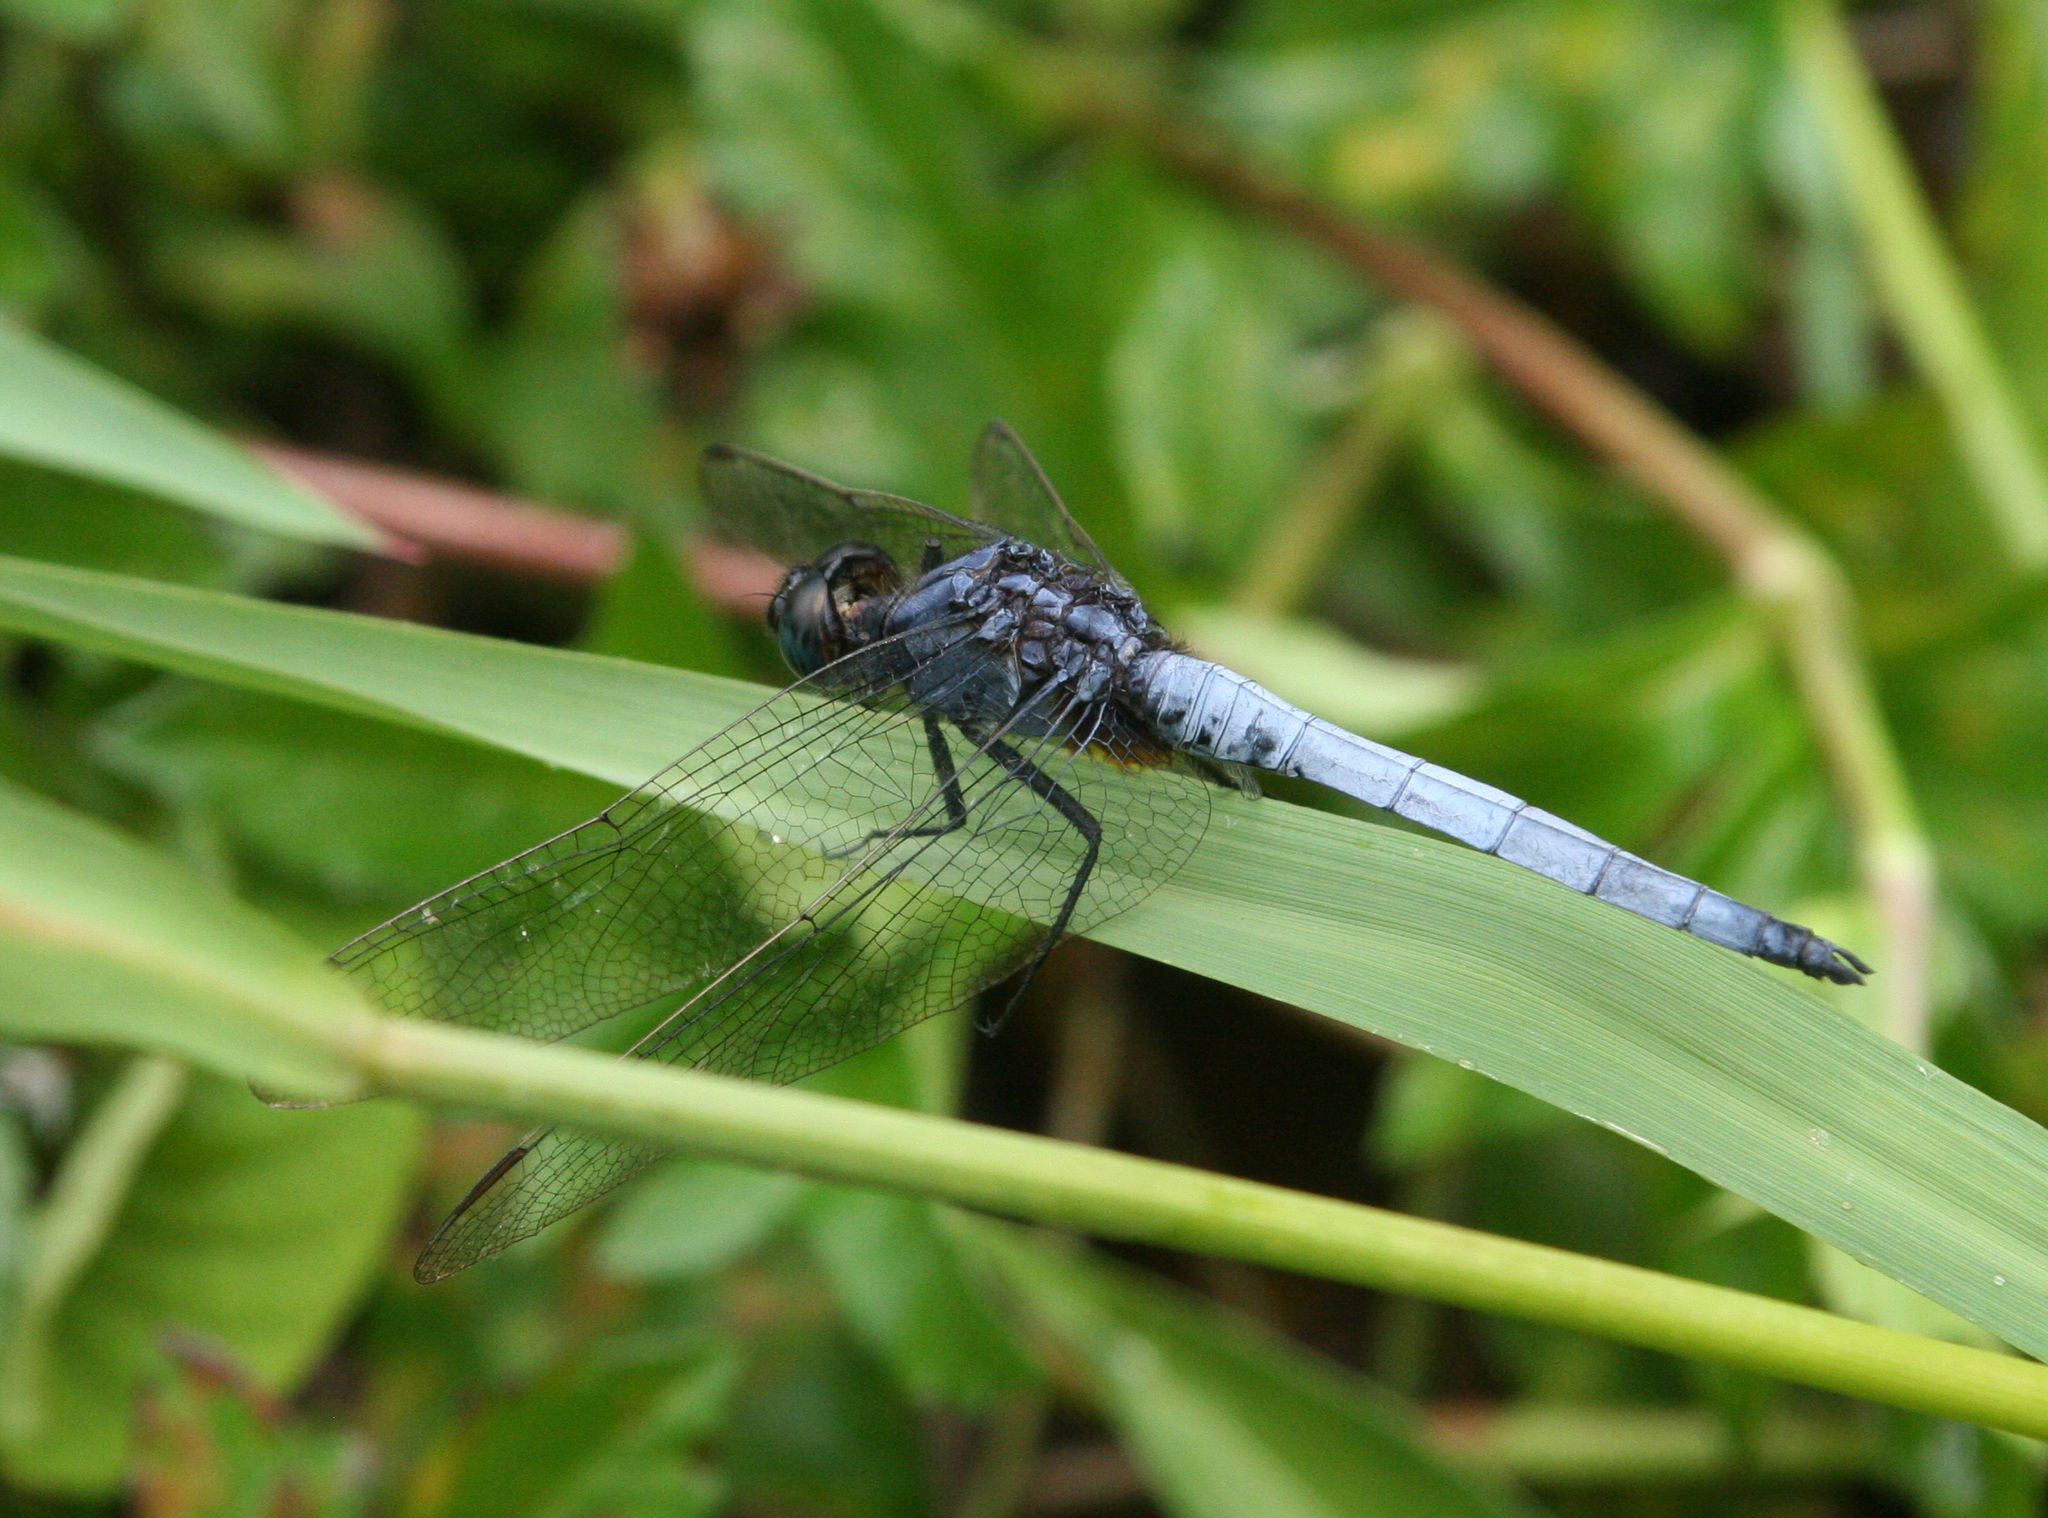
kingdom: Animalia
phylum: Arthropoda
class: Insecta
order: Odonata
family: Libellulidae
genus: Orthetrum
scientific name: Orthetrum glaucum
